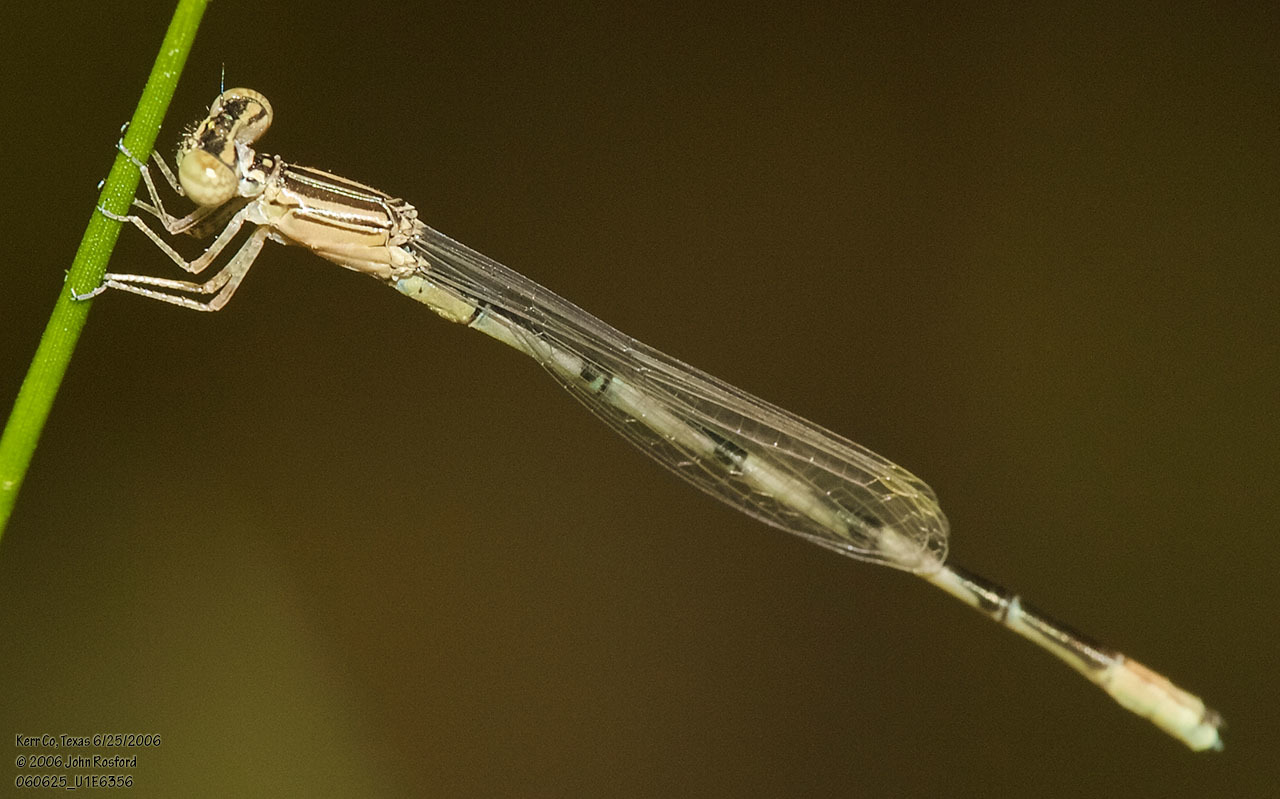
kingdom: Animalia
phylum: Arthropoda
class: Insecta
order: Odonata
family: Coenagrionidae
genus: Enallagma
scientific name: Enallagma basidens
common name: Double-striped bluet
